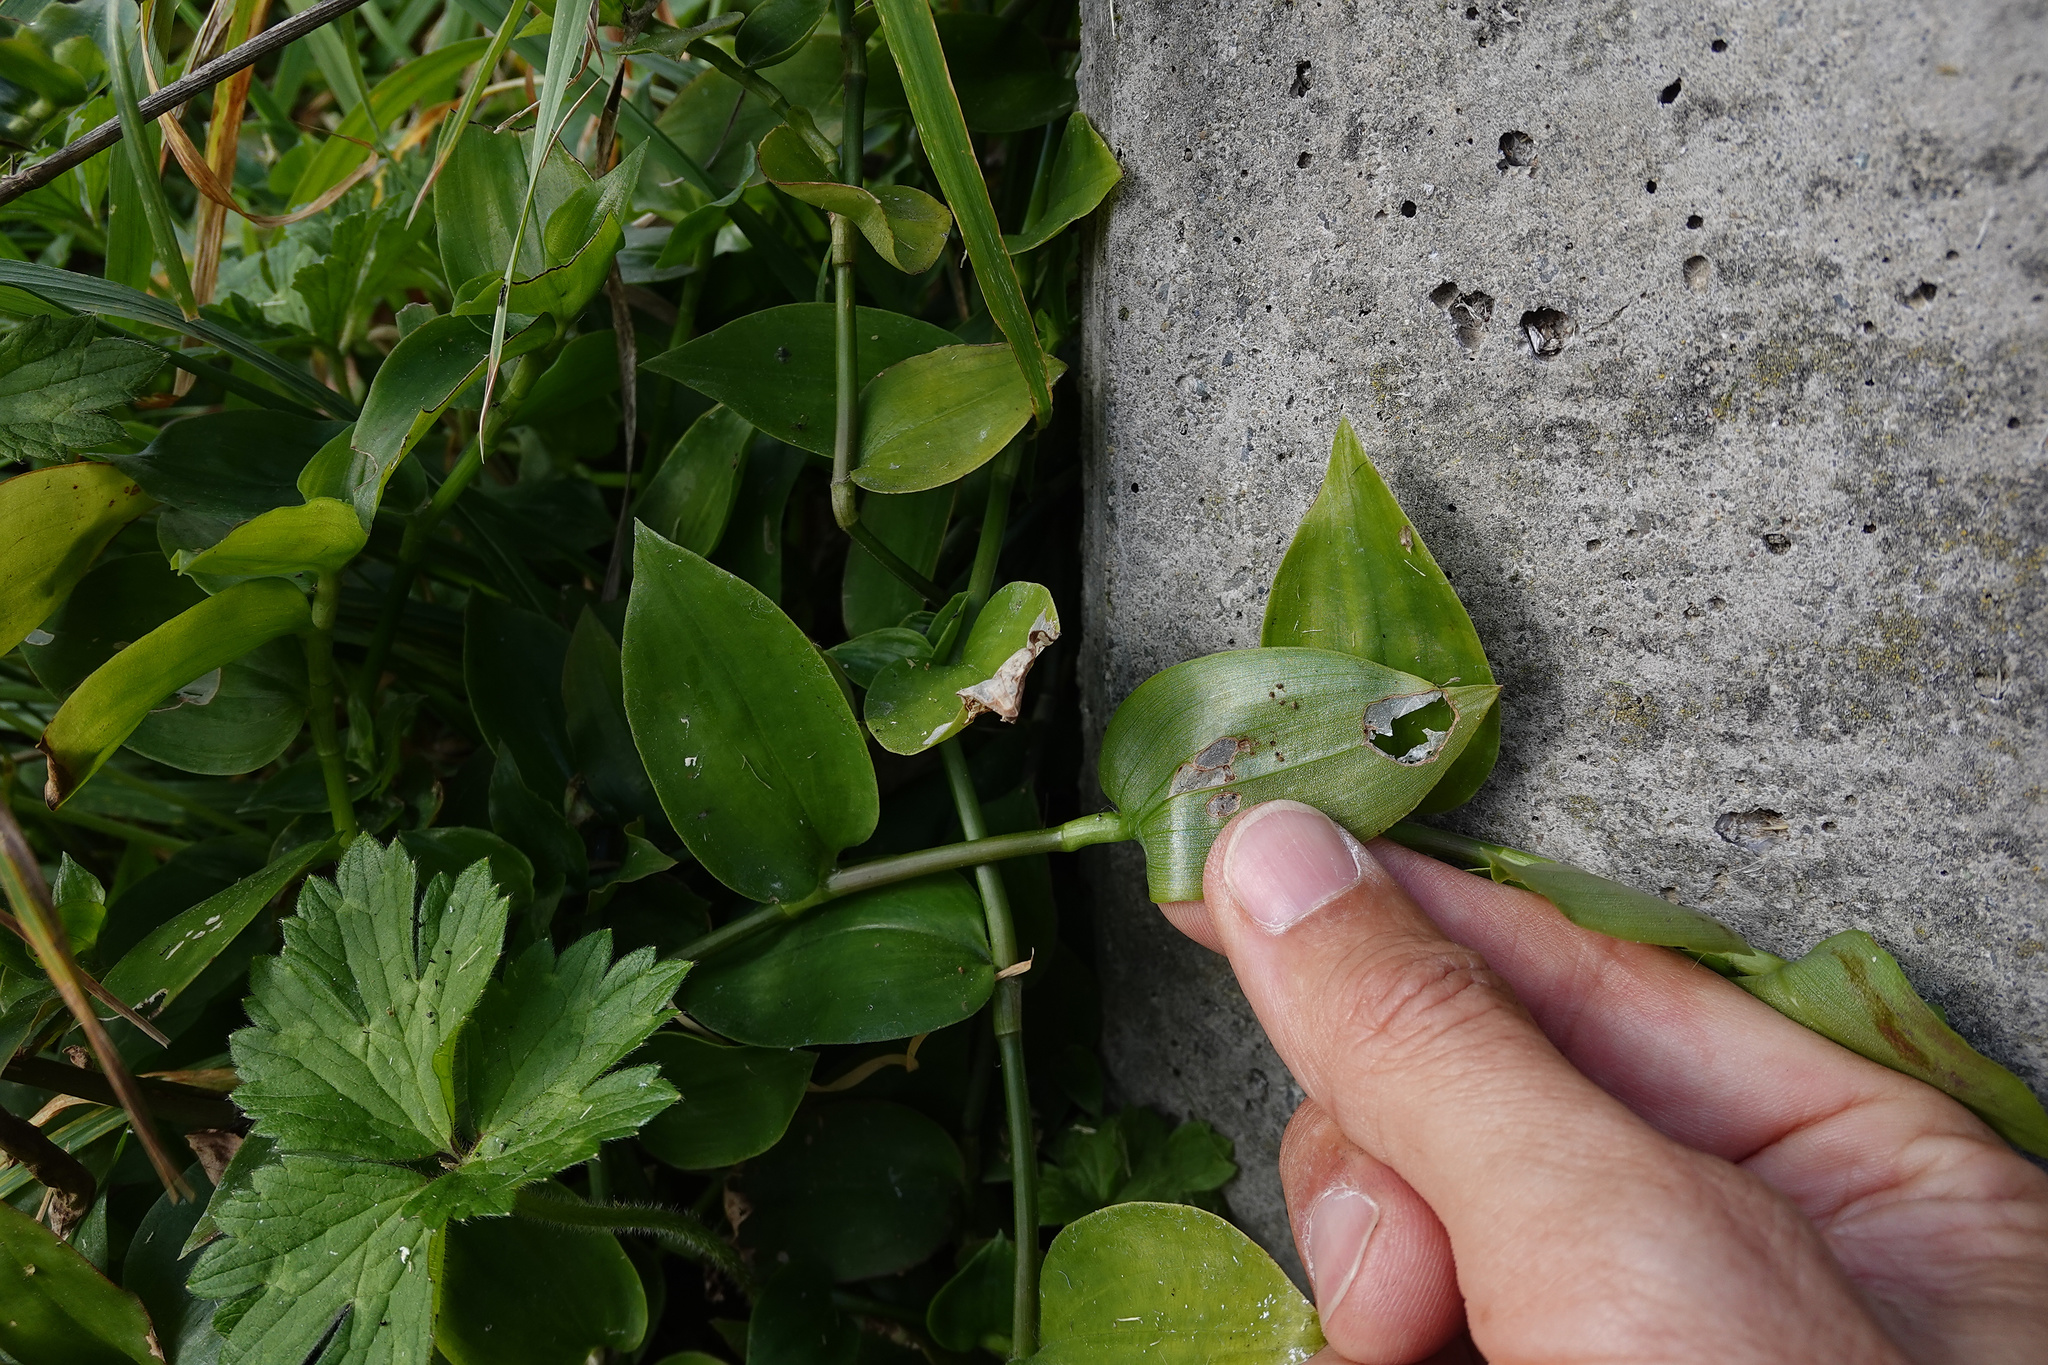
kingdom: Plantae
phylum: Tracheophyta
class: Liliopsida
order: Commelinales
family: Commelinaceae
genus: Tradescantia
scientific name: Tradescantia fluminensis
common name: Wandering-jew
